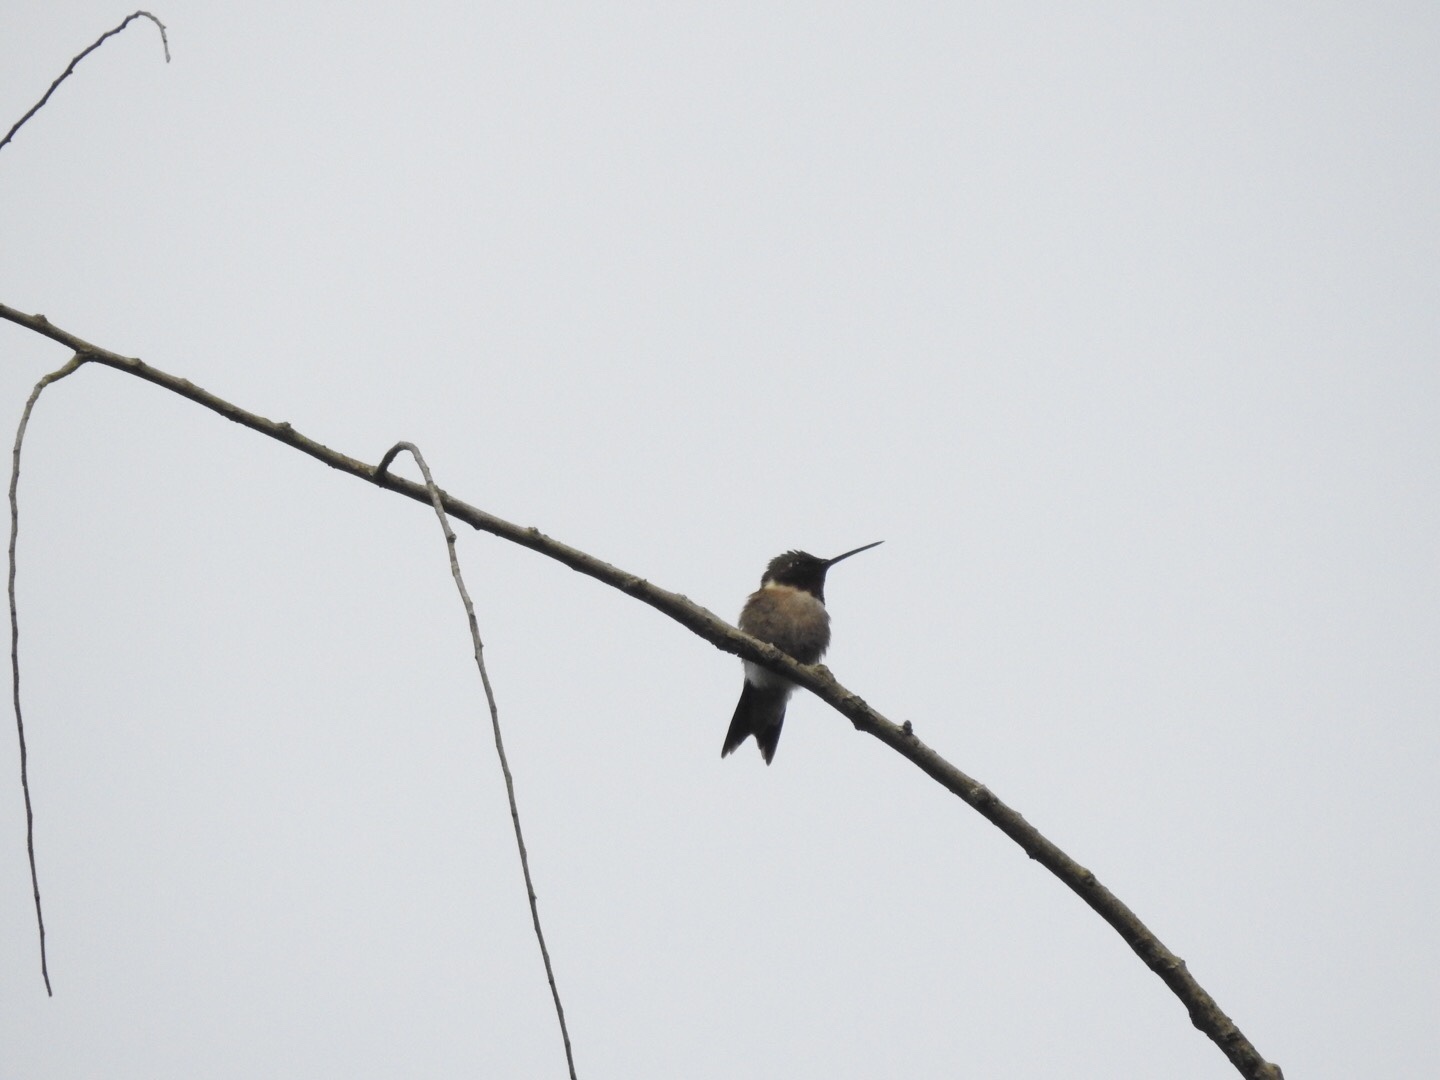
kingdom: Animalia
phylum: Chordata
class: Aves
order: Apodiformes
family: Trochilidae
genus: Archilochus
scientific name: Archilochus colubris
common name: Ruby-throated hummingbird
